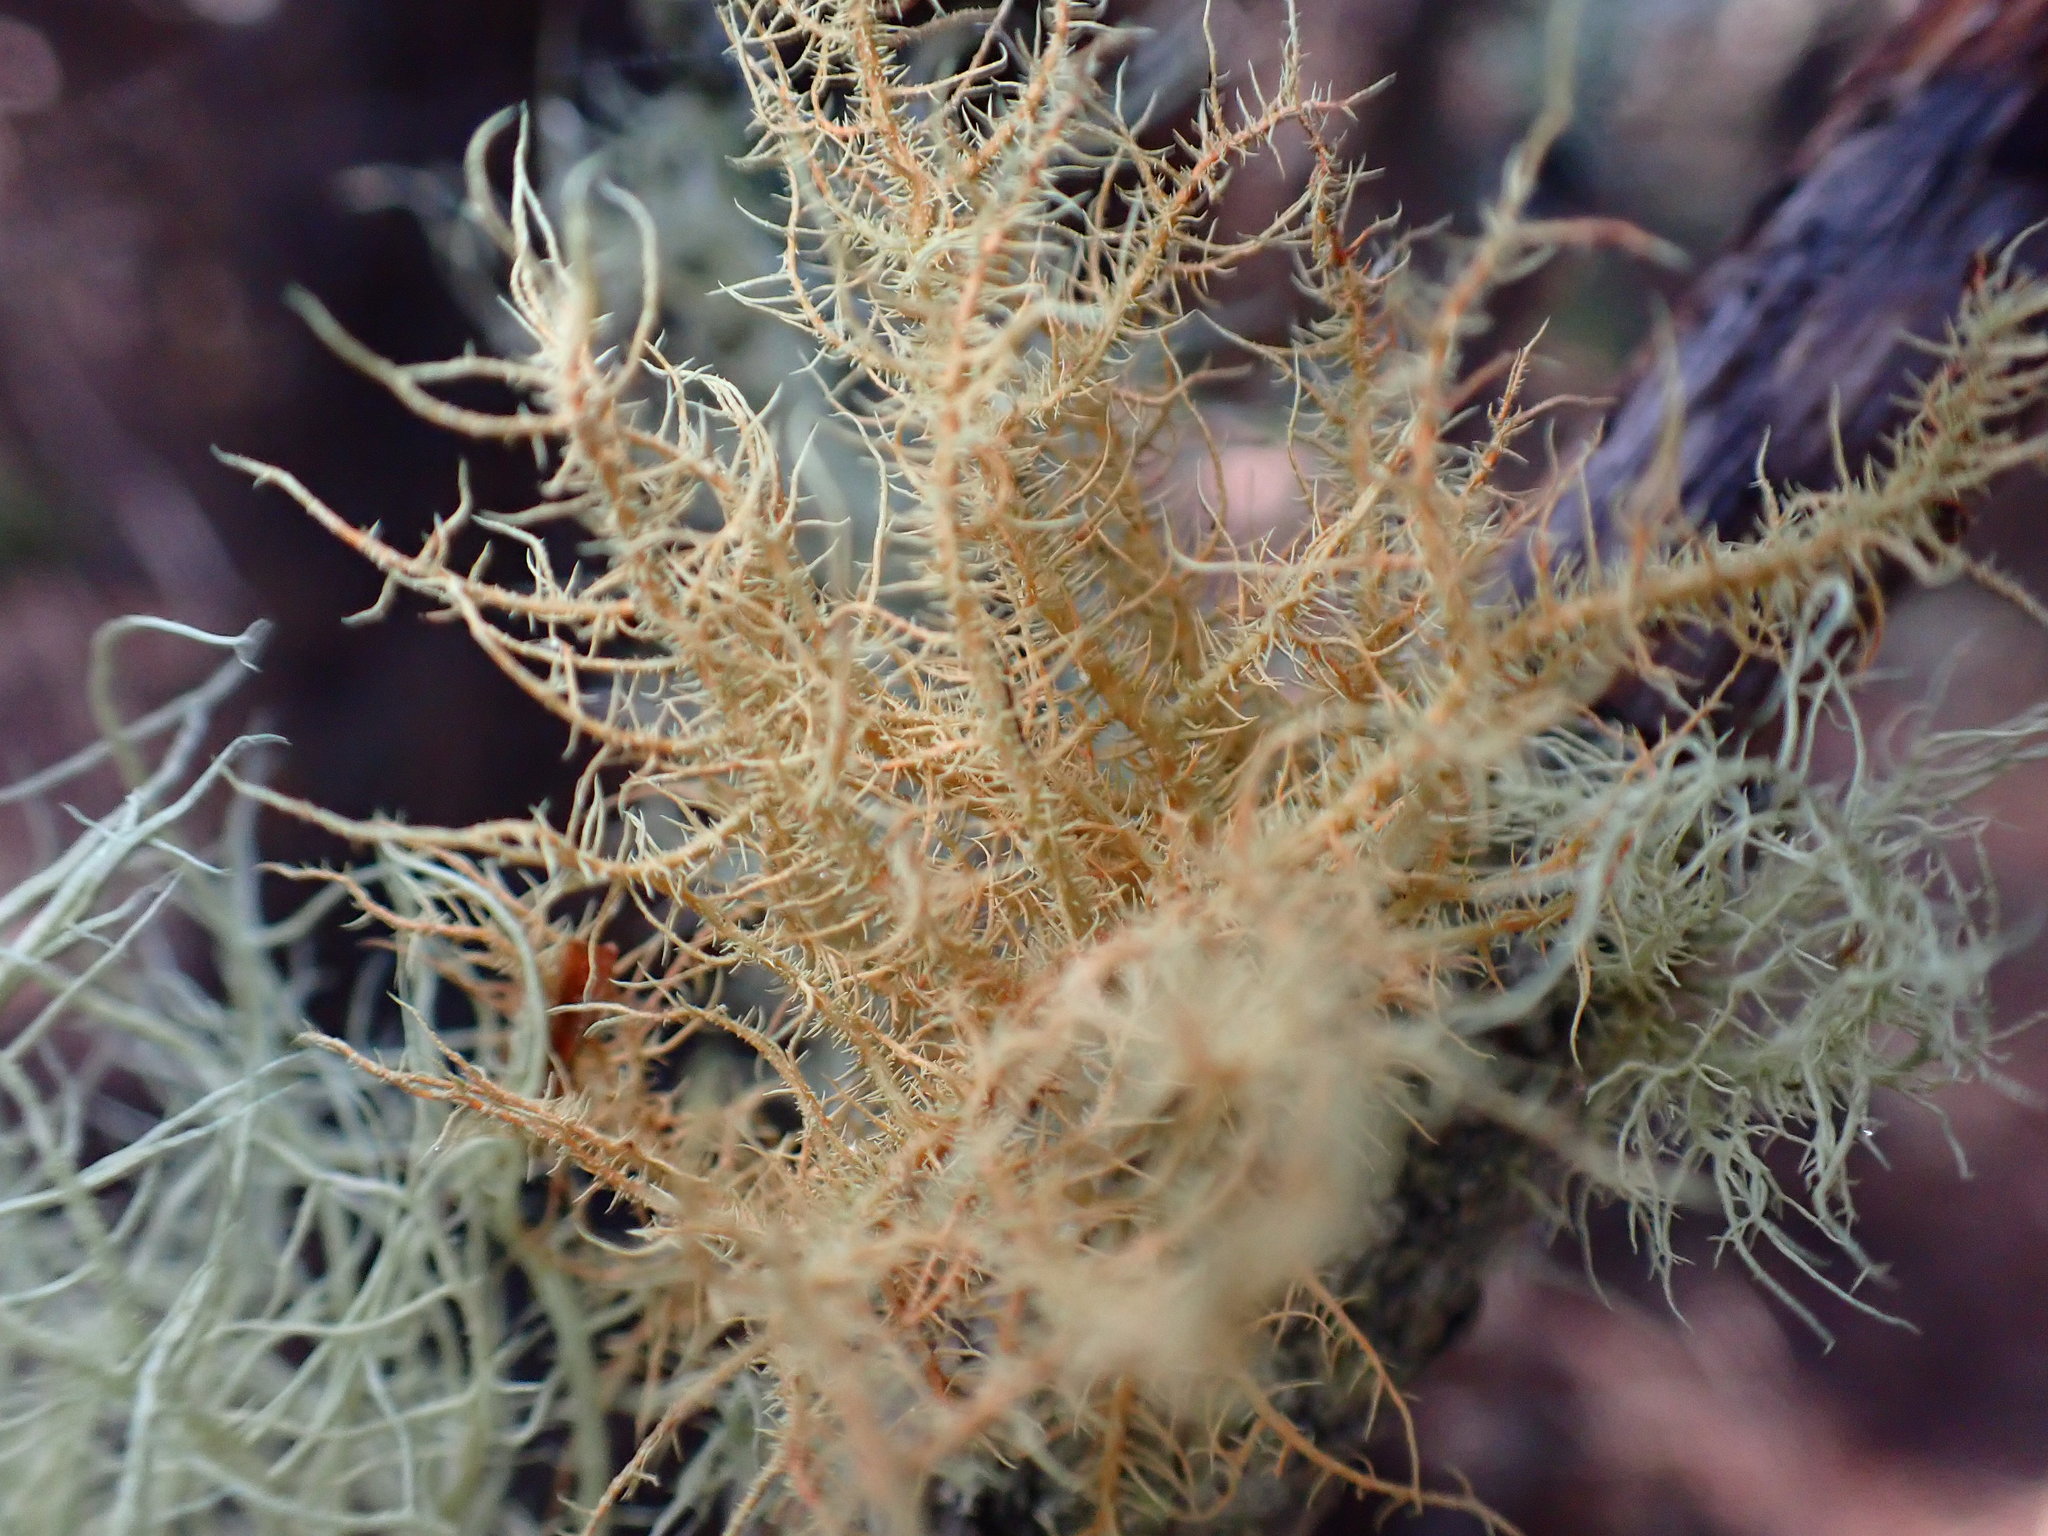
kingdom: Fungi
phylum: Ascomycota
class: Lecanoromycetes
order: Lecanorales
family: Parmeliaceae
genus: Usnea
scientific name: Usnea rubicunda
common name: Red beard lichen
